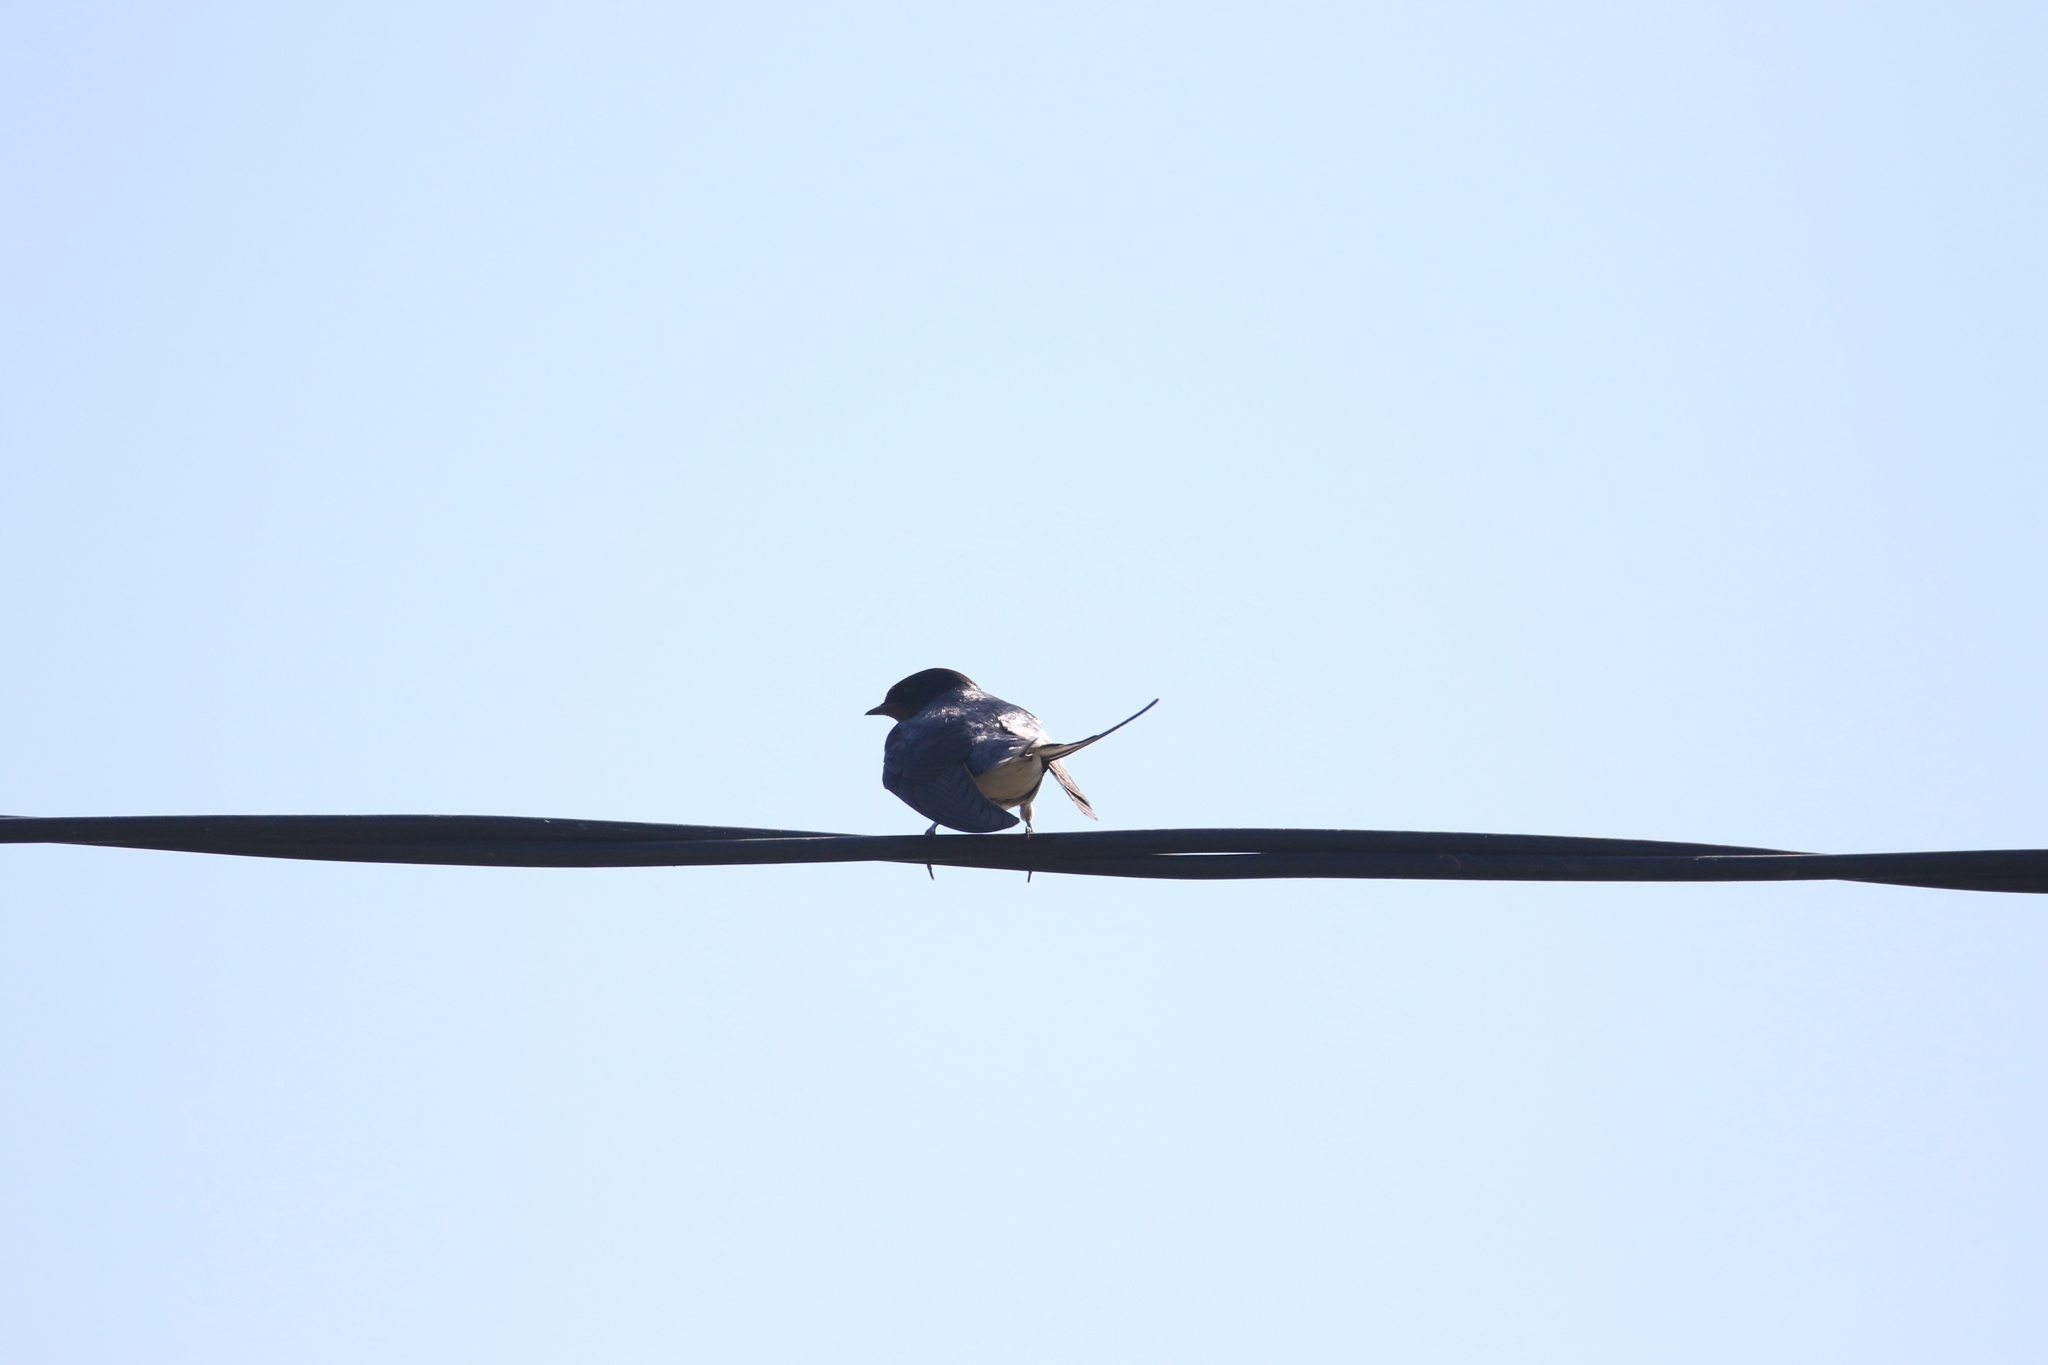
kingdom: Animalia
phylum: Chordata
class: Aves
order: Passeriformes
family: Hirundinidae
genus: Hirundo
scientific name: Hirundo rustica
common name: Barn swallow
